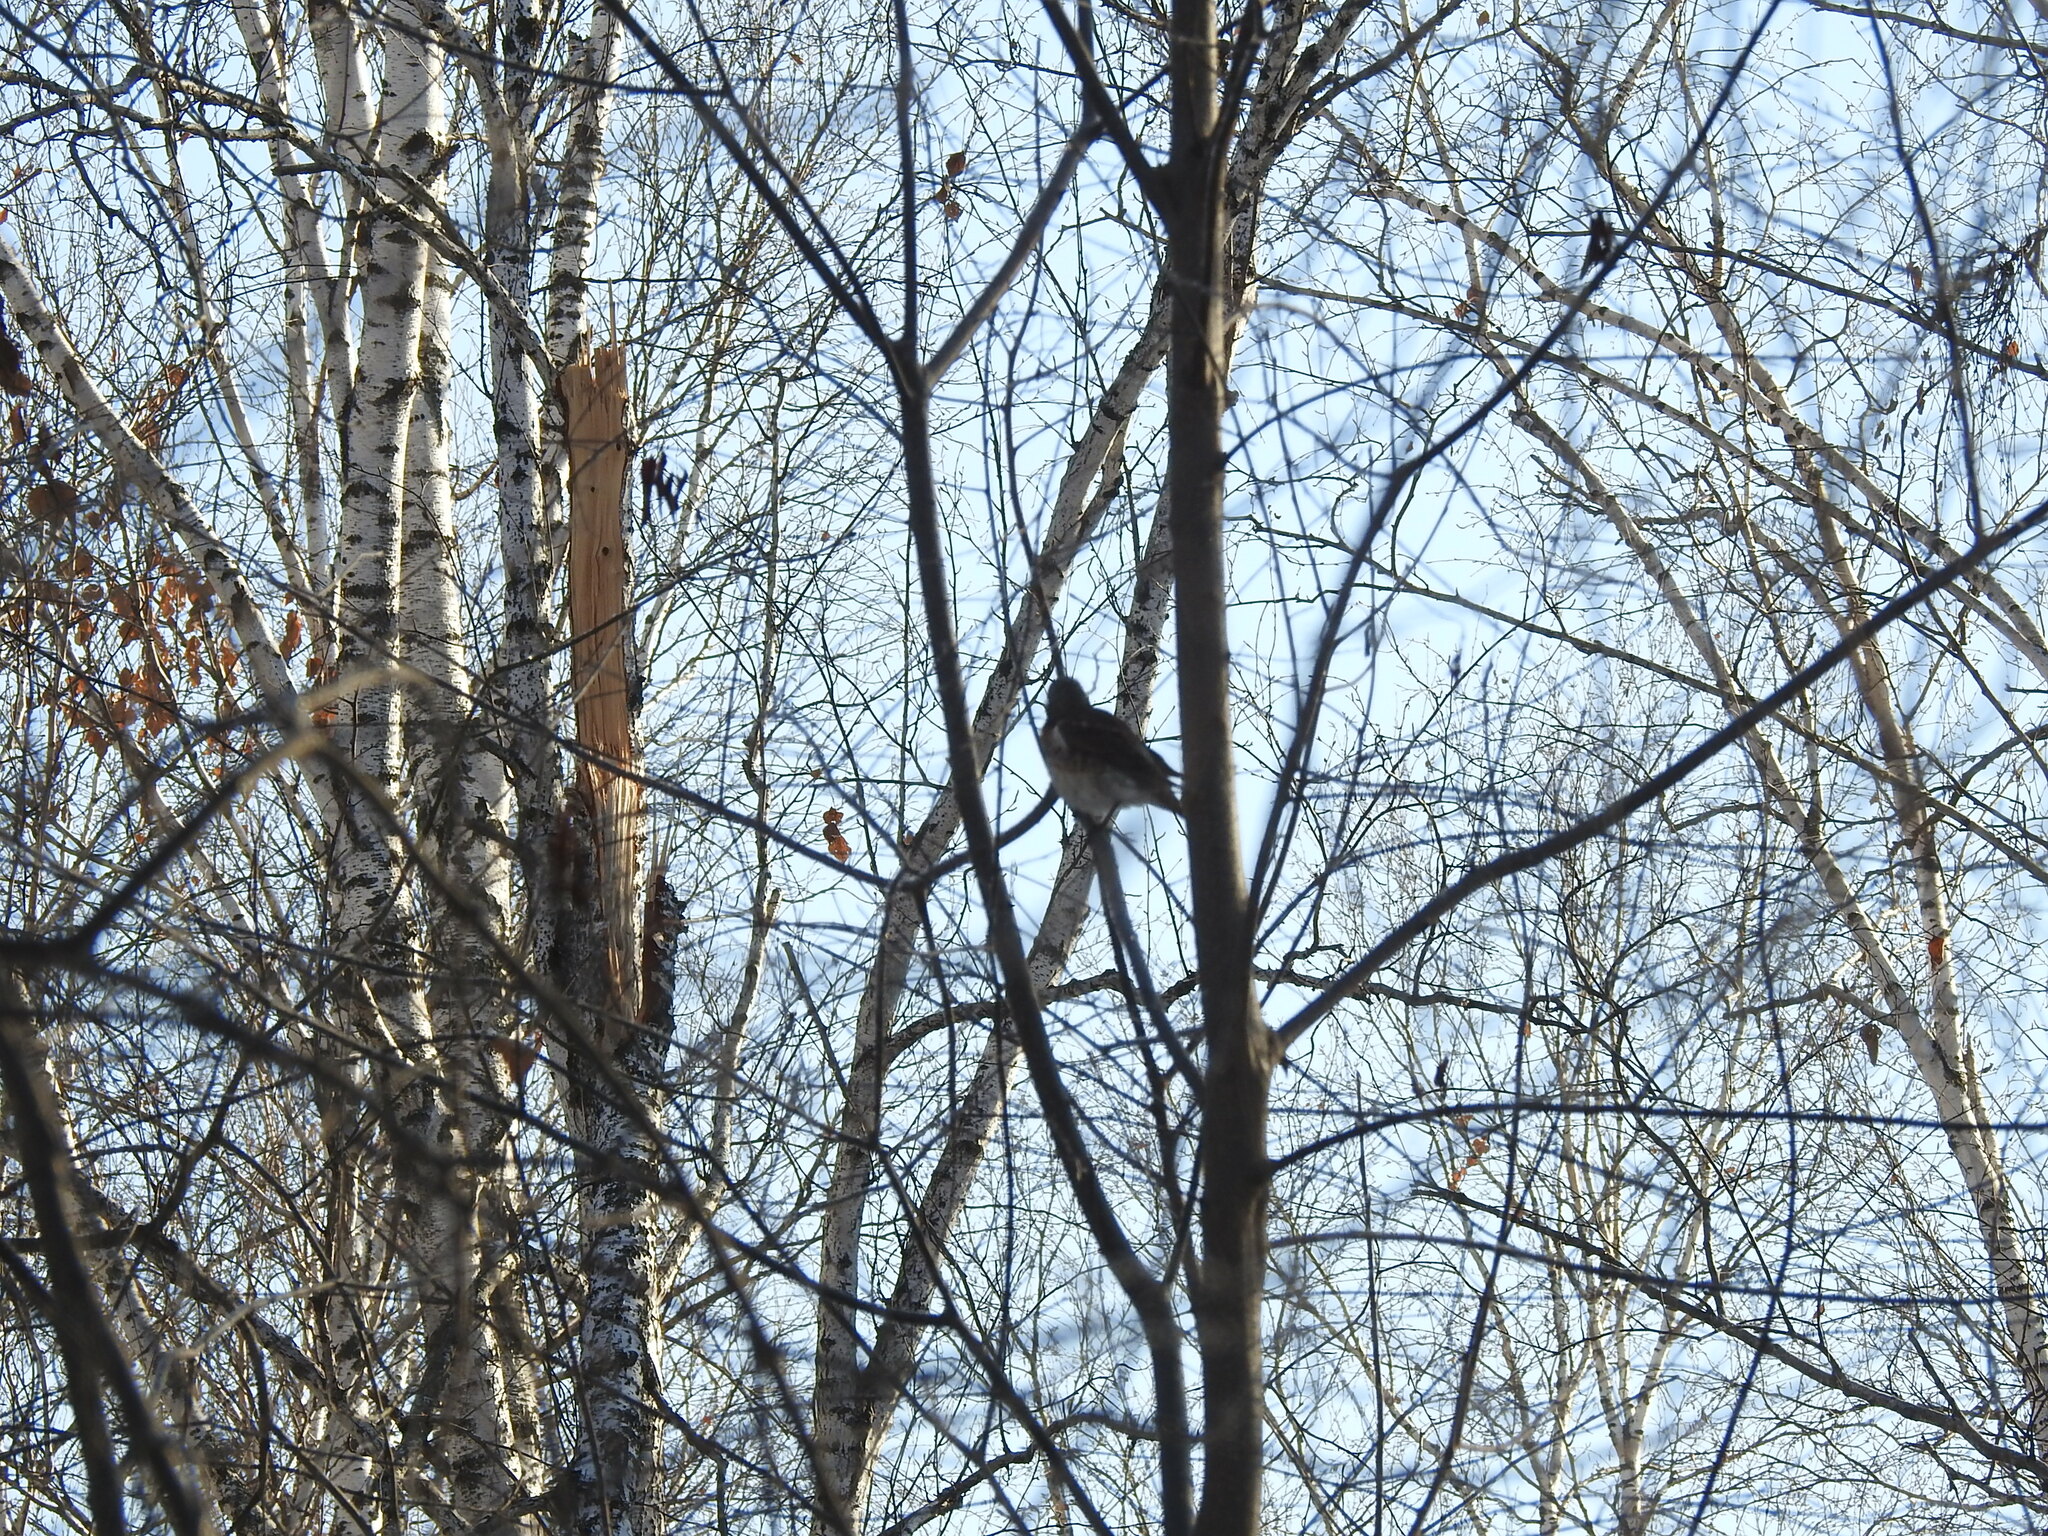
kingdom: Animalia
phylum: Chordata
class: Aves
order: Passeriformes
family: Turdidae
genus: Turdus
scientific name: Turdus pilaris
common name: Fieldfare
